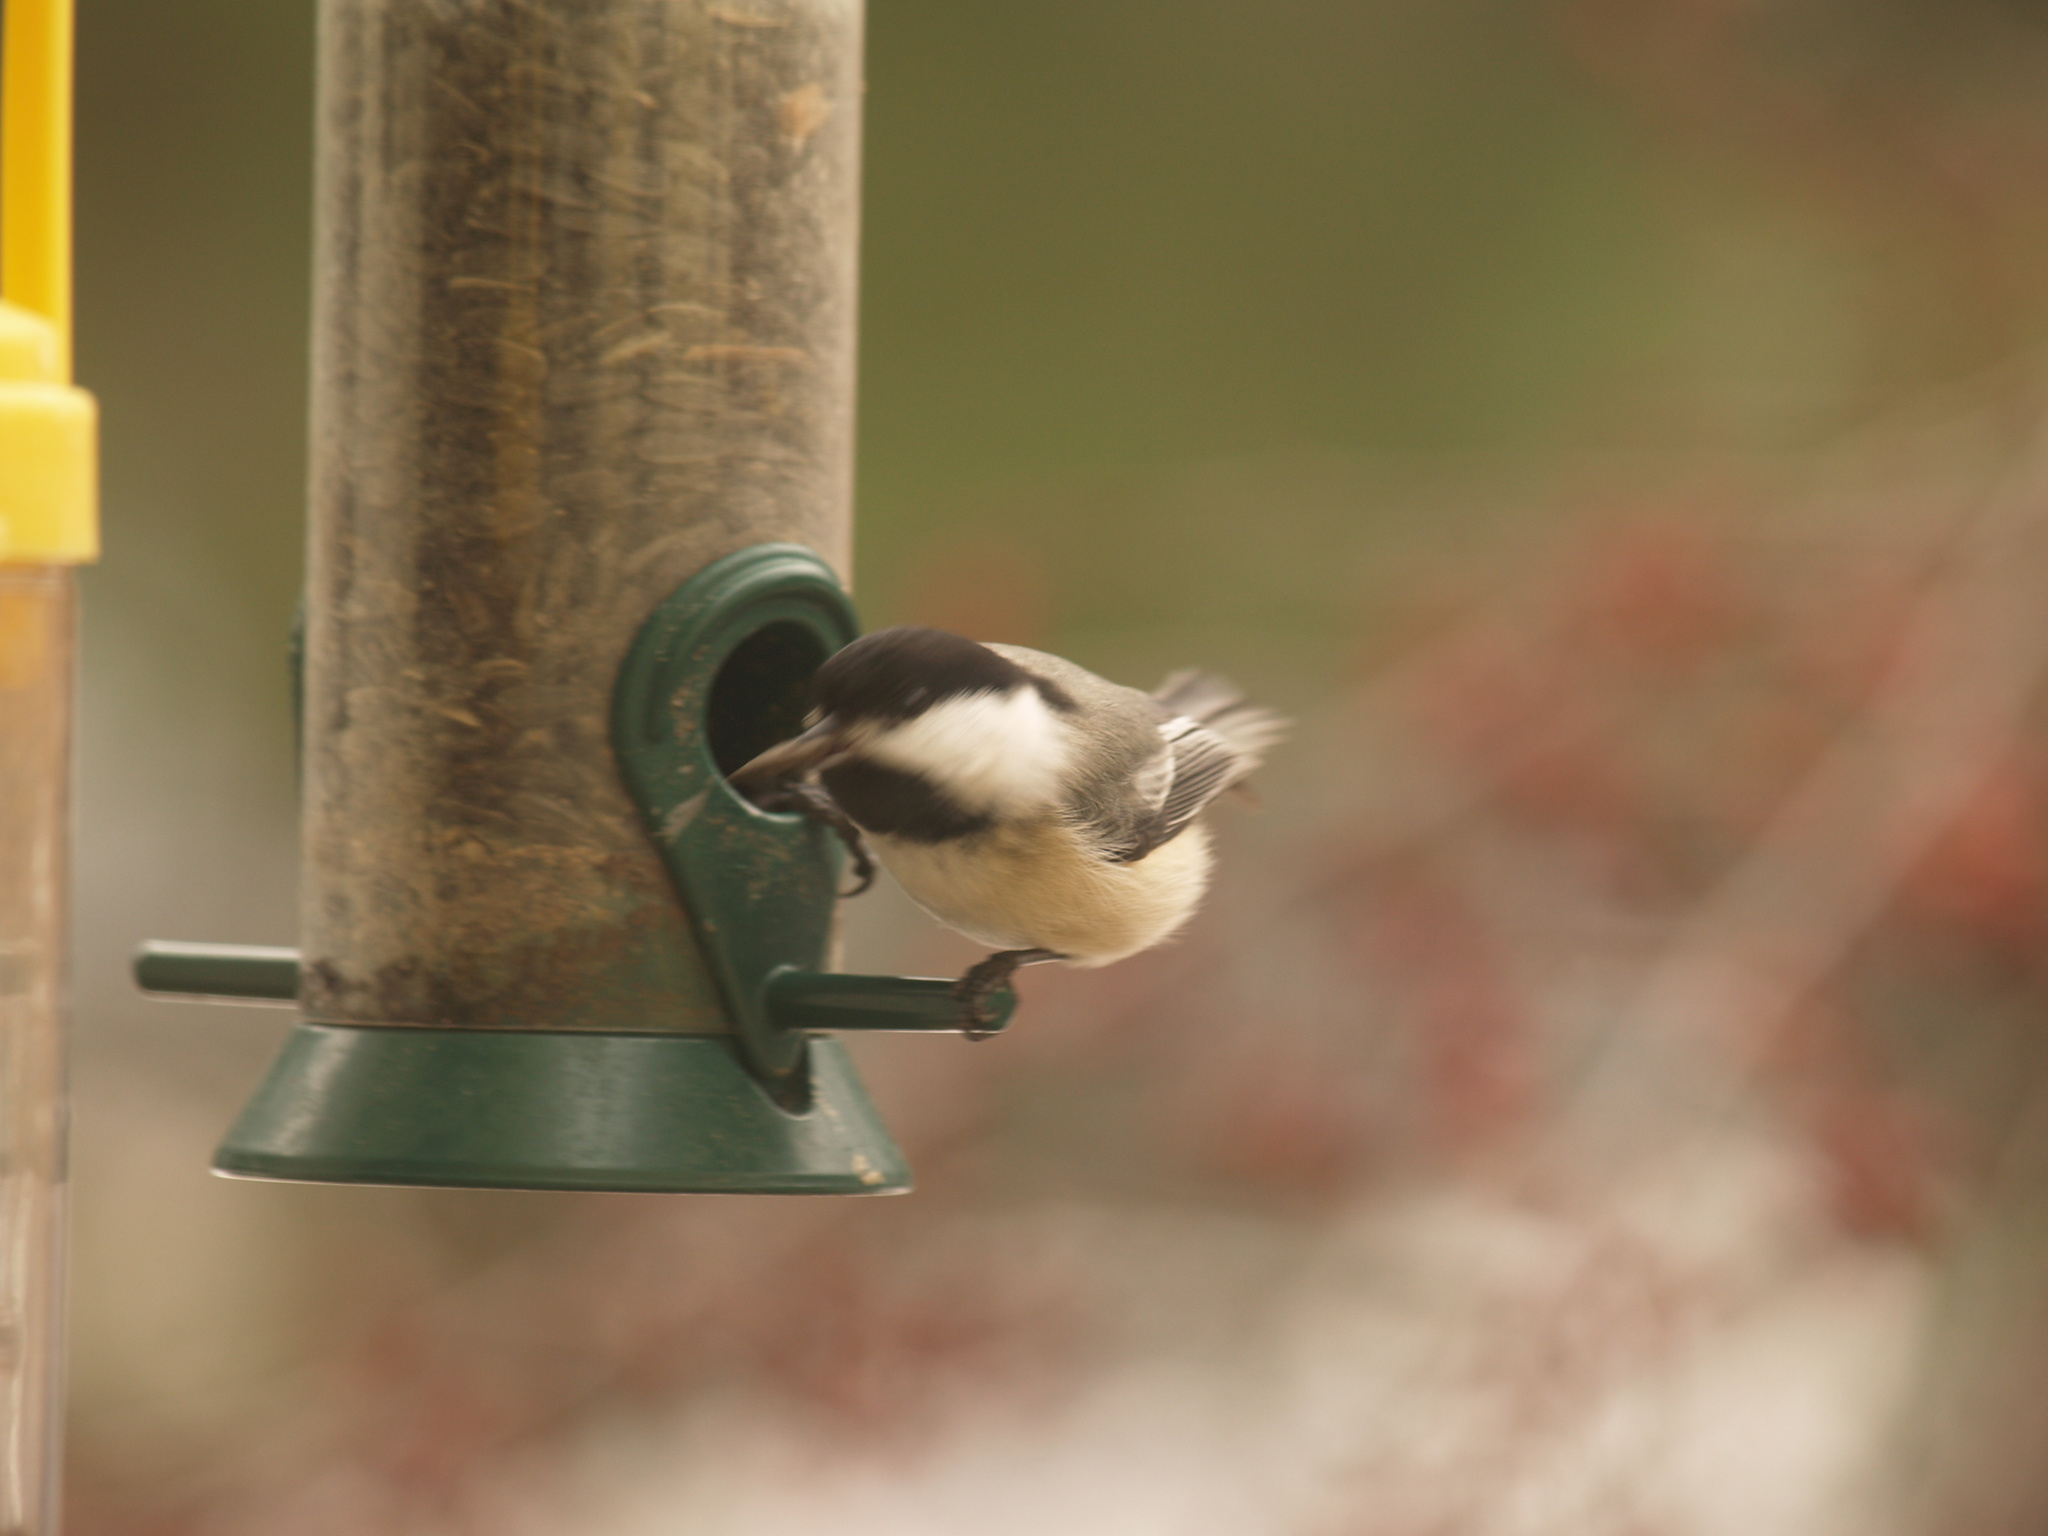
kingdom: Animalia
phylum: Chordata
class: Aves
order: Passeriformes
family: Paridae
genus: Poecile
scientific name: Poecile atricapillus
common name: Black-capped chickadee
